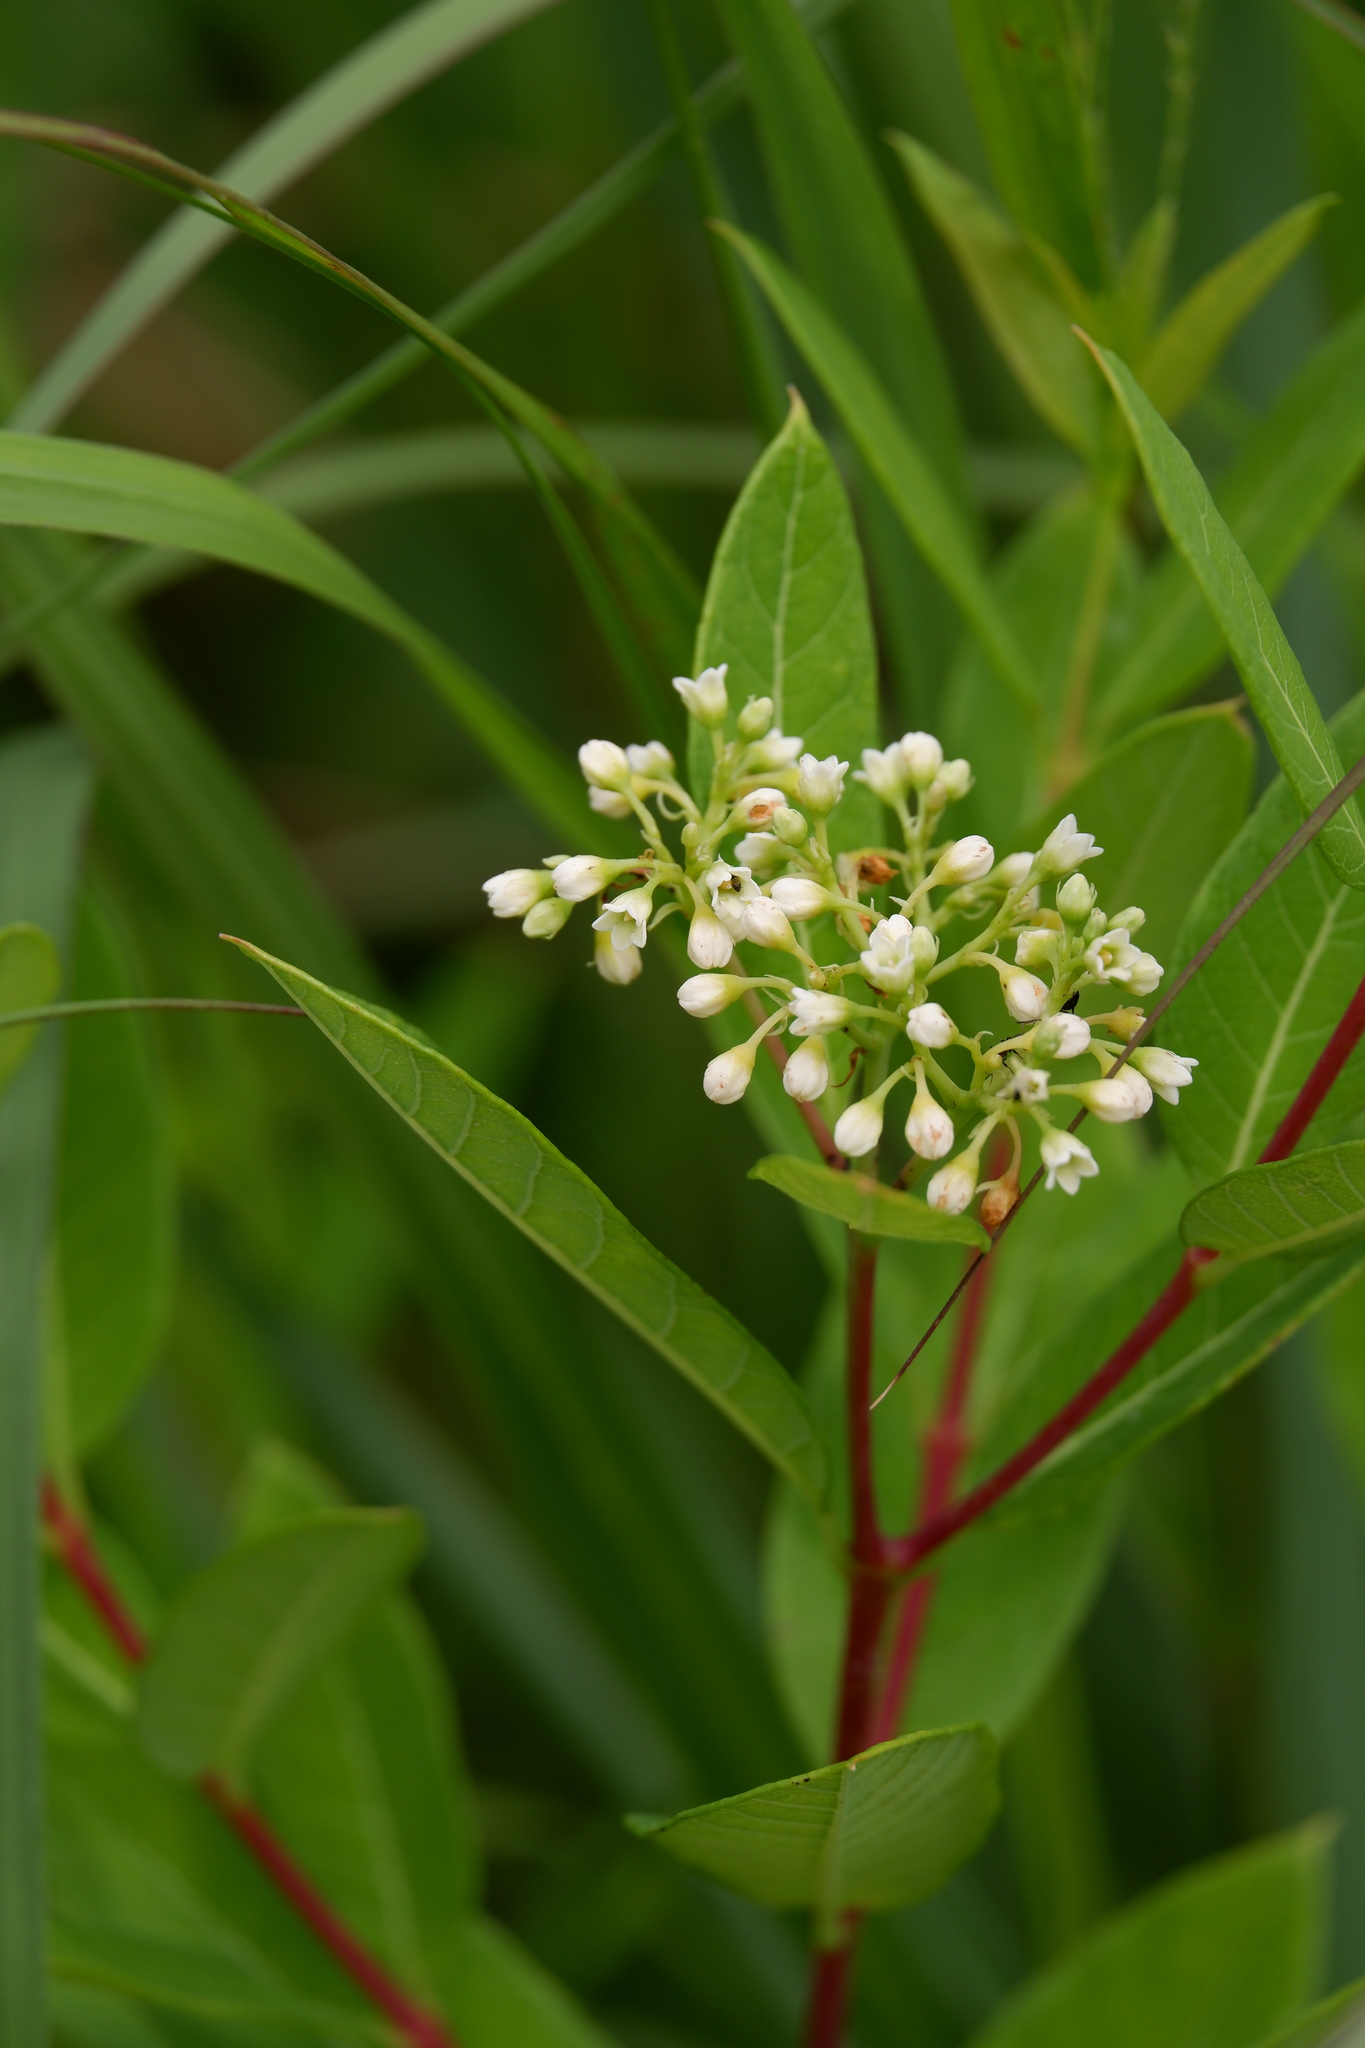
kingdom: Plantae
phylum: Tracheophyta
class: Magnoliopsida
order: Gentianales
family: Apocynaceae
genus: Apocynum
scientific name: Apocynum cannabinum
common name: Hemp dogbane
